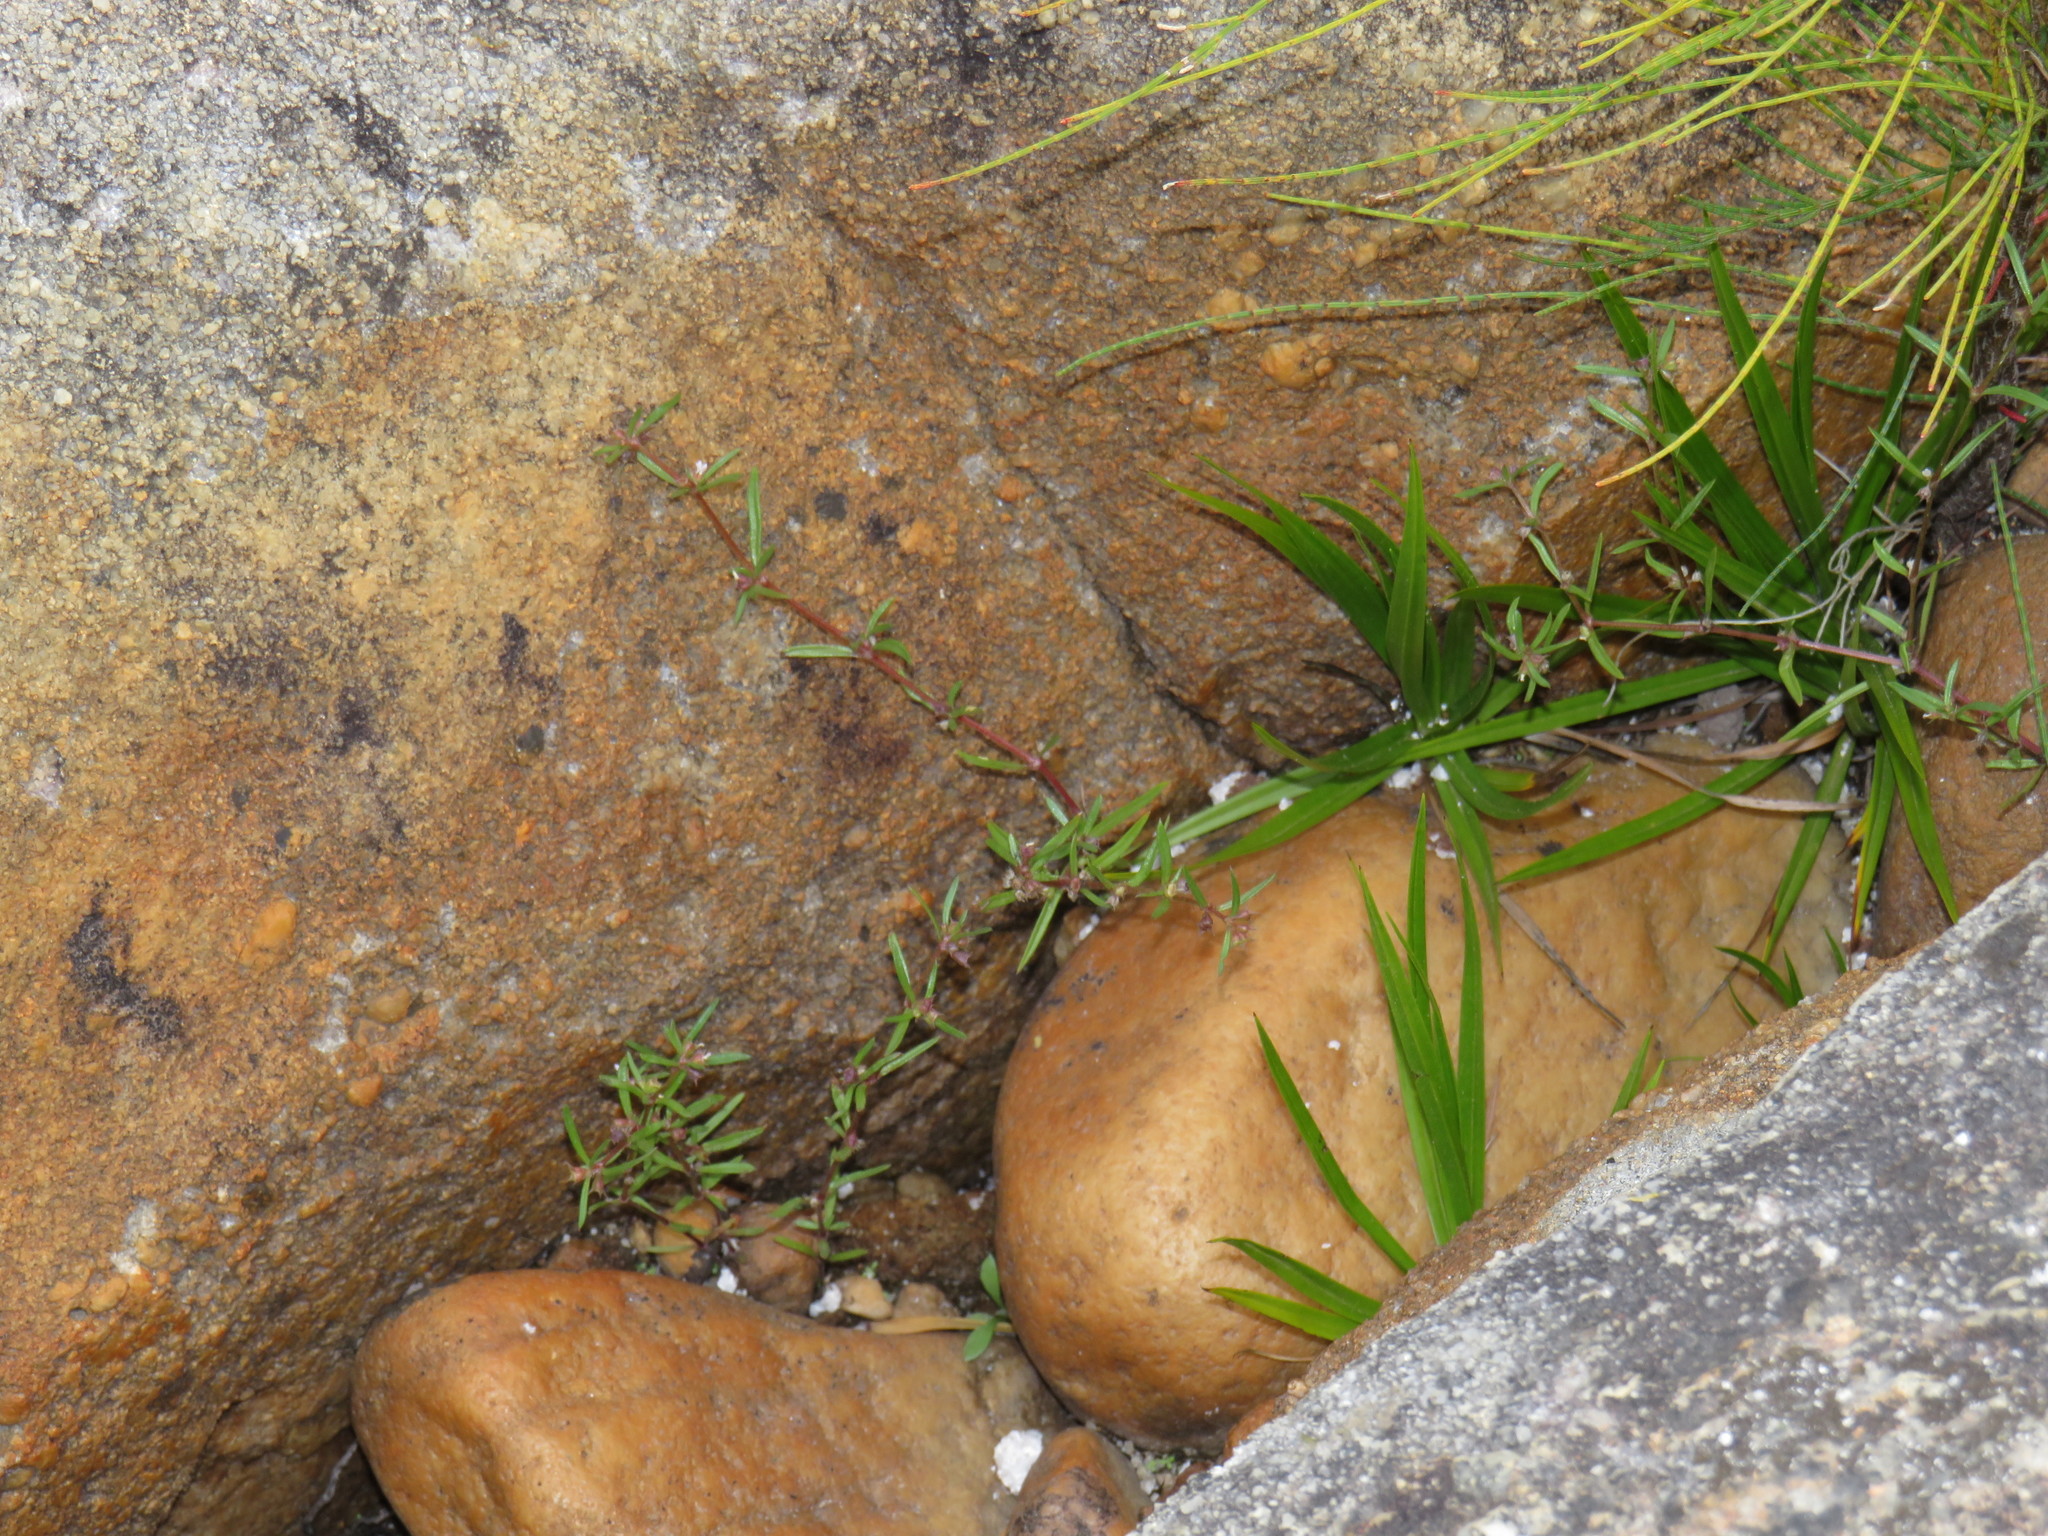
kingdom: Plantae
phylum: Tracheophyta
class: Magnoliopsida
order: Gentianales
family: Rubiaceae
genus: Oldenlandia
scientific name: Oldenlandia capensis
